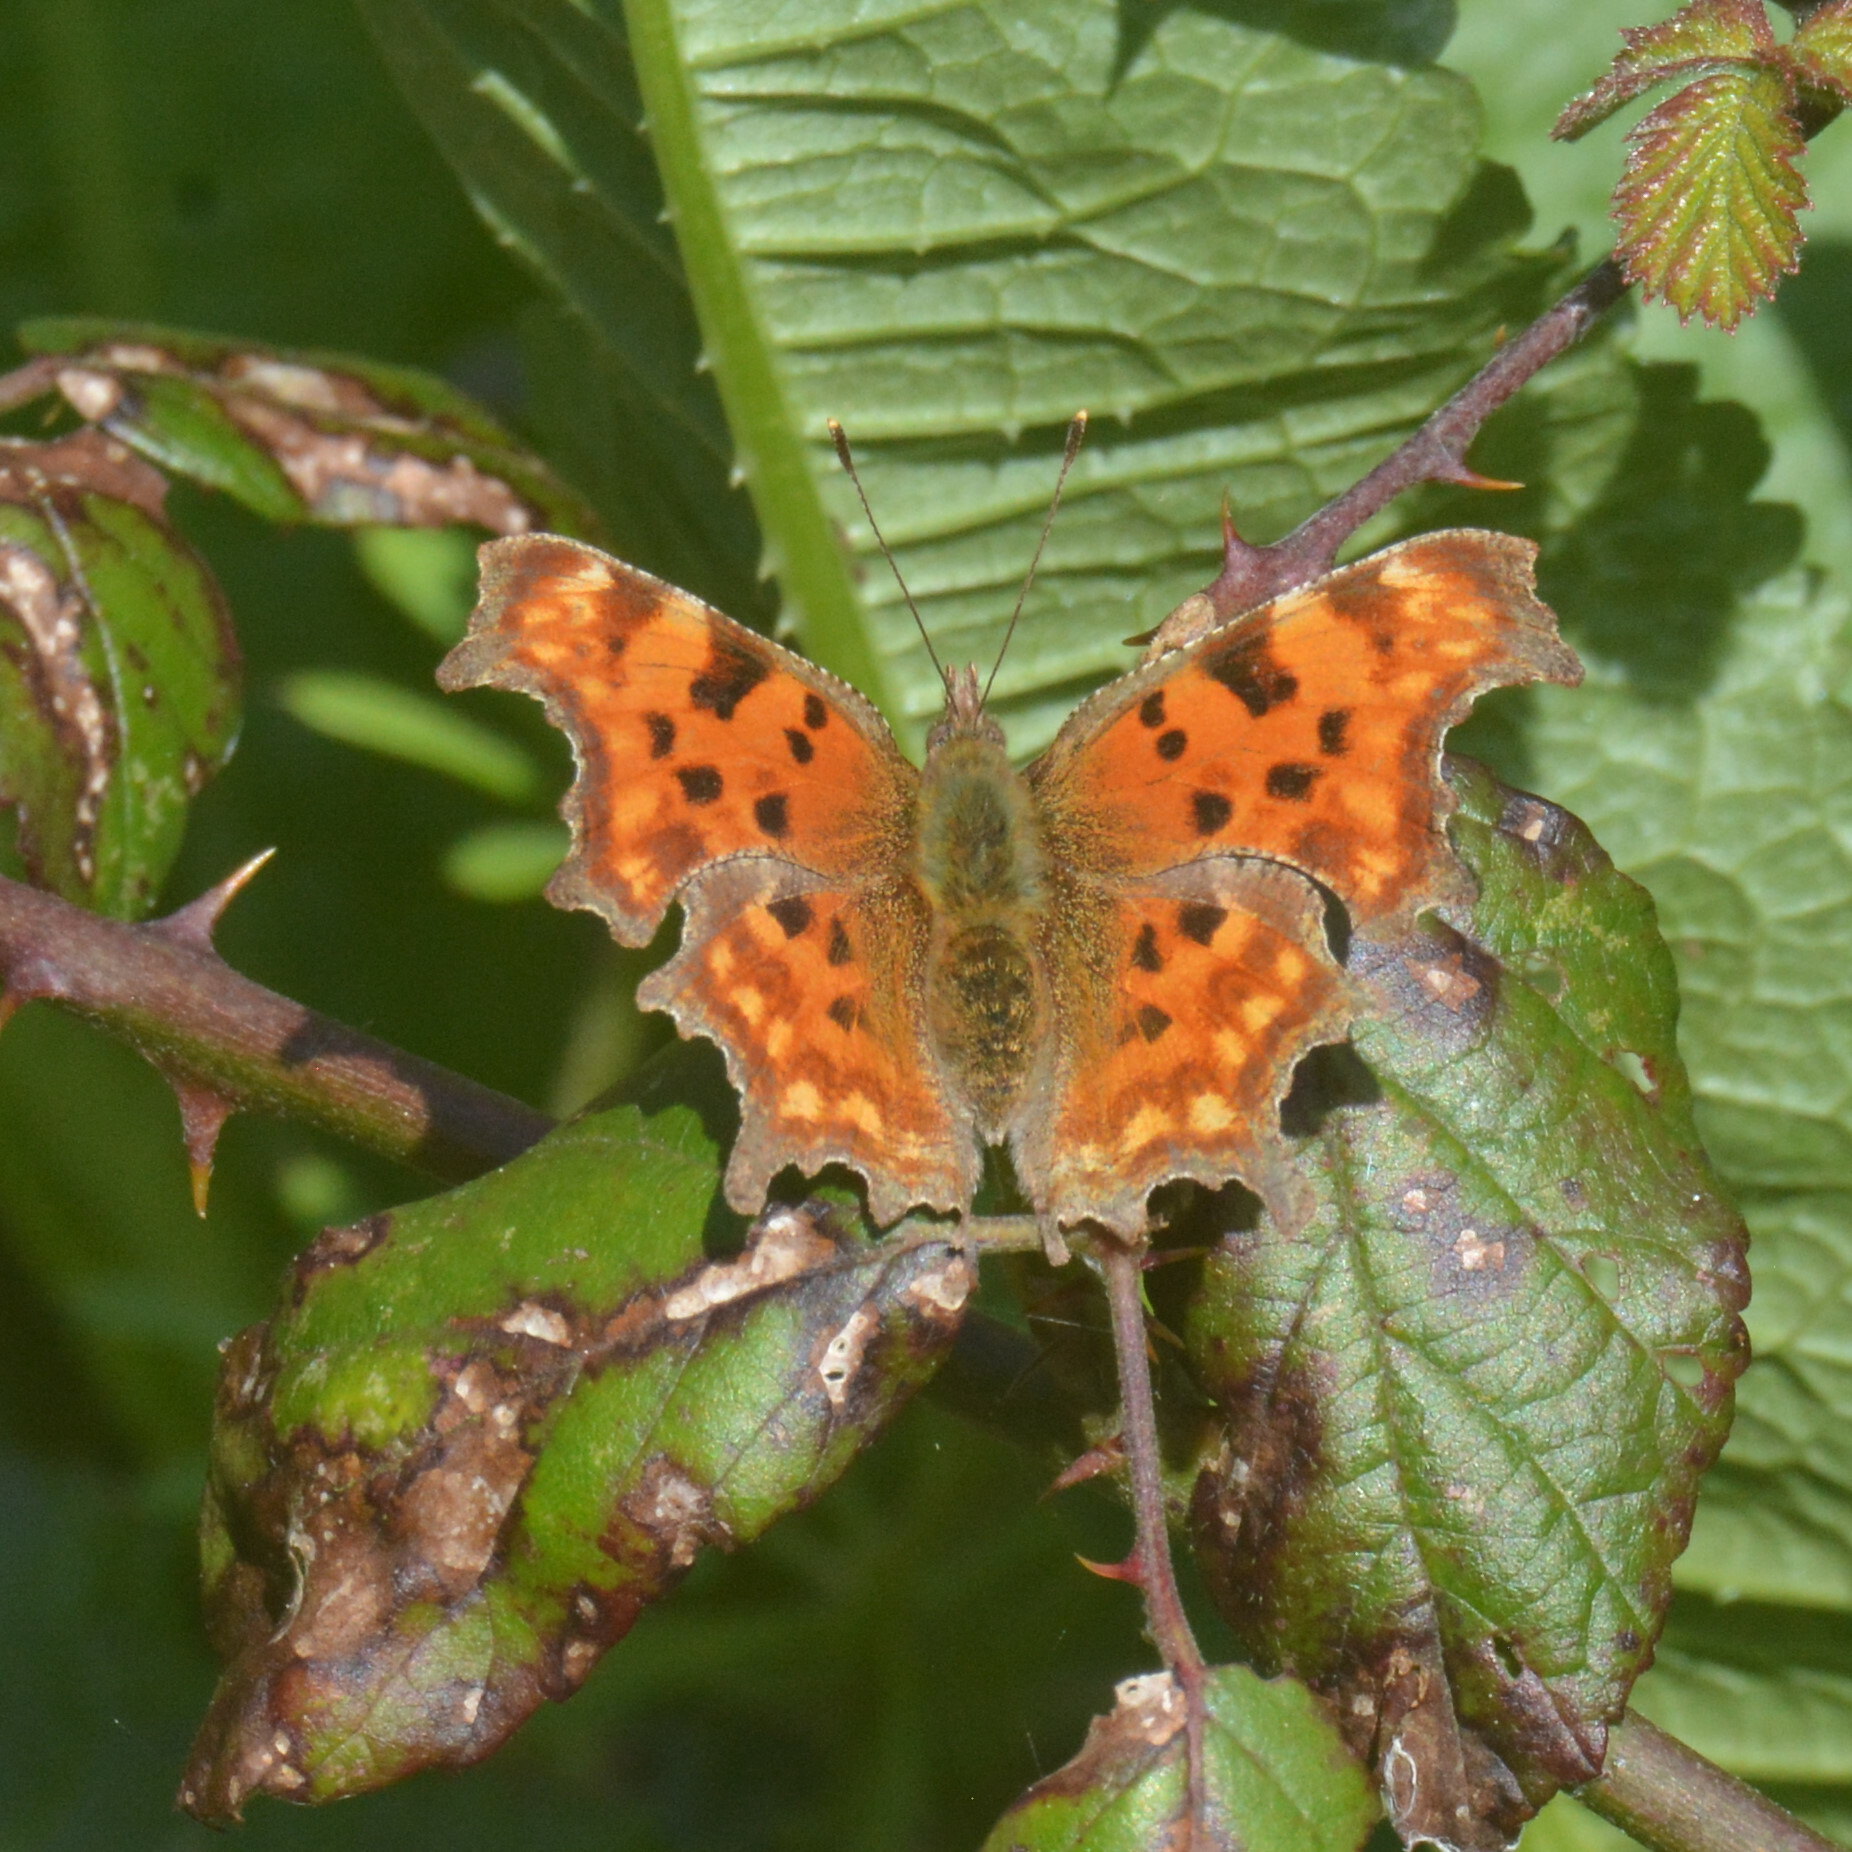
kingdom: Animalia
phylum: Arthropoda
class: Insecta
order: Lepidoptera
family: Nymphalidae
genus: Polygonia
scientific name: Polygonia c-album
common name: Comma
